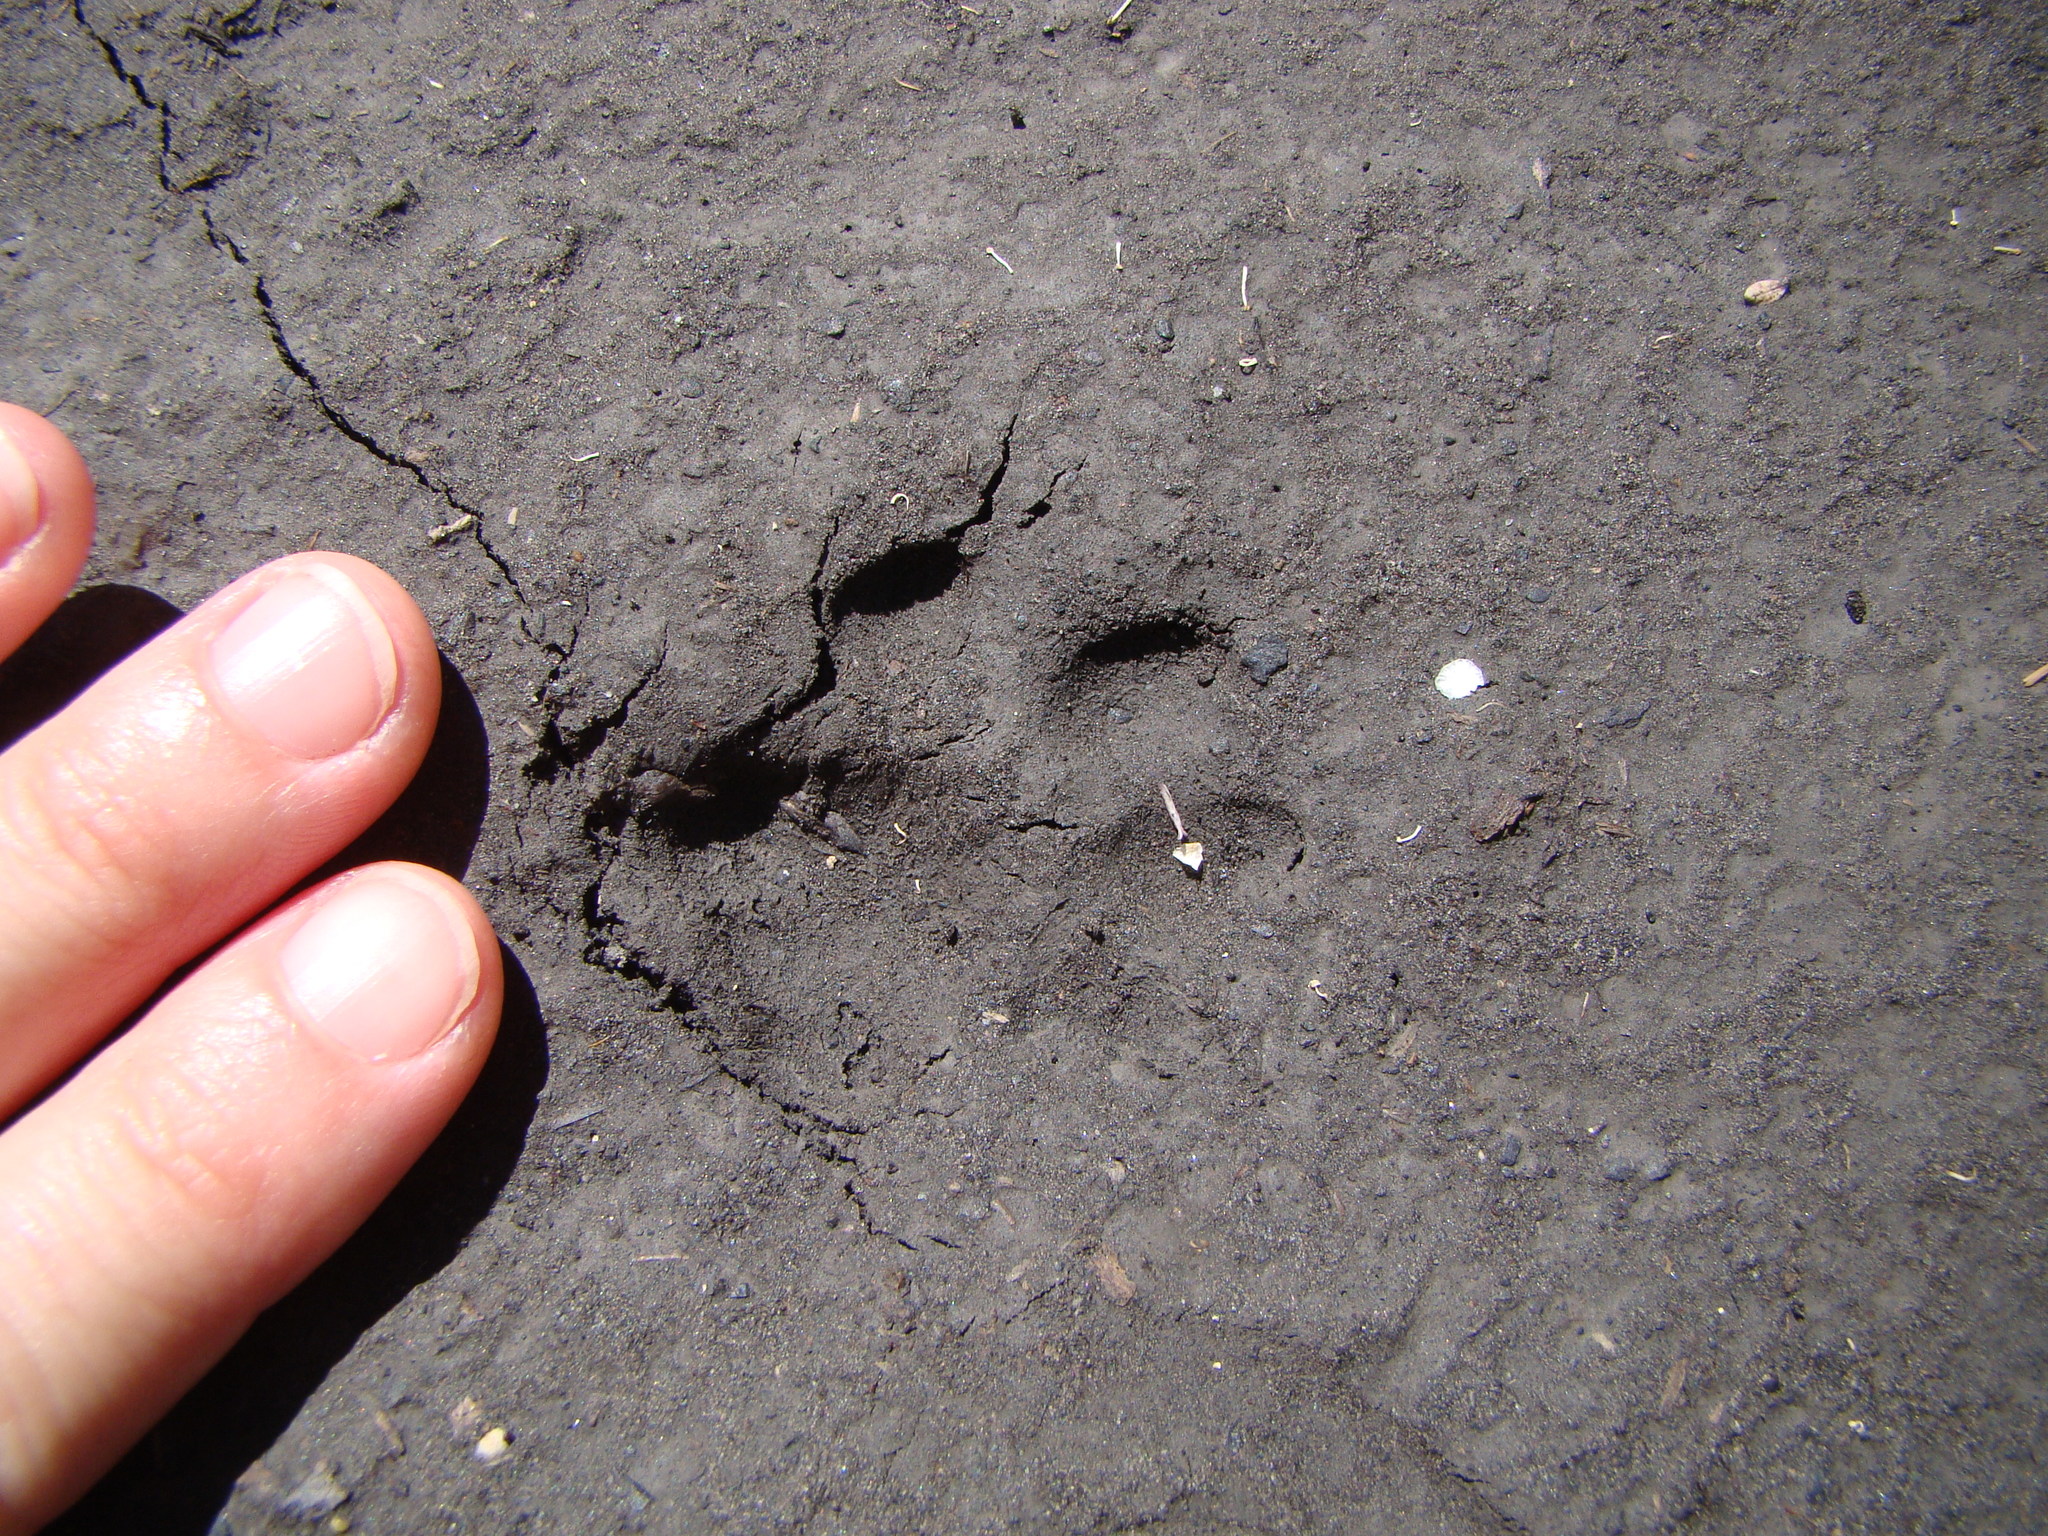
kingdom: Animalia
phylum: Chordata
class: Mammalia
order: Carnivora
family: Felidae
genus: Felis
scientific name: Felis catus
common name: Domestic cat
